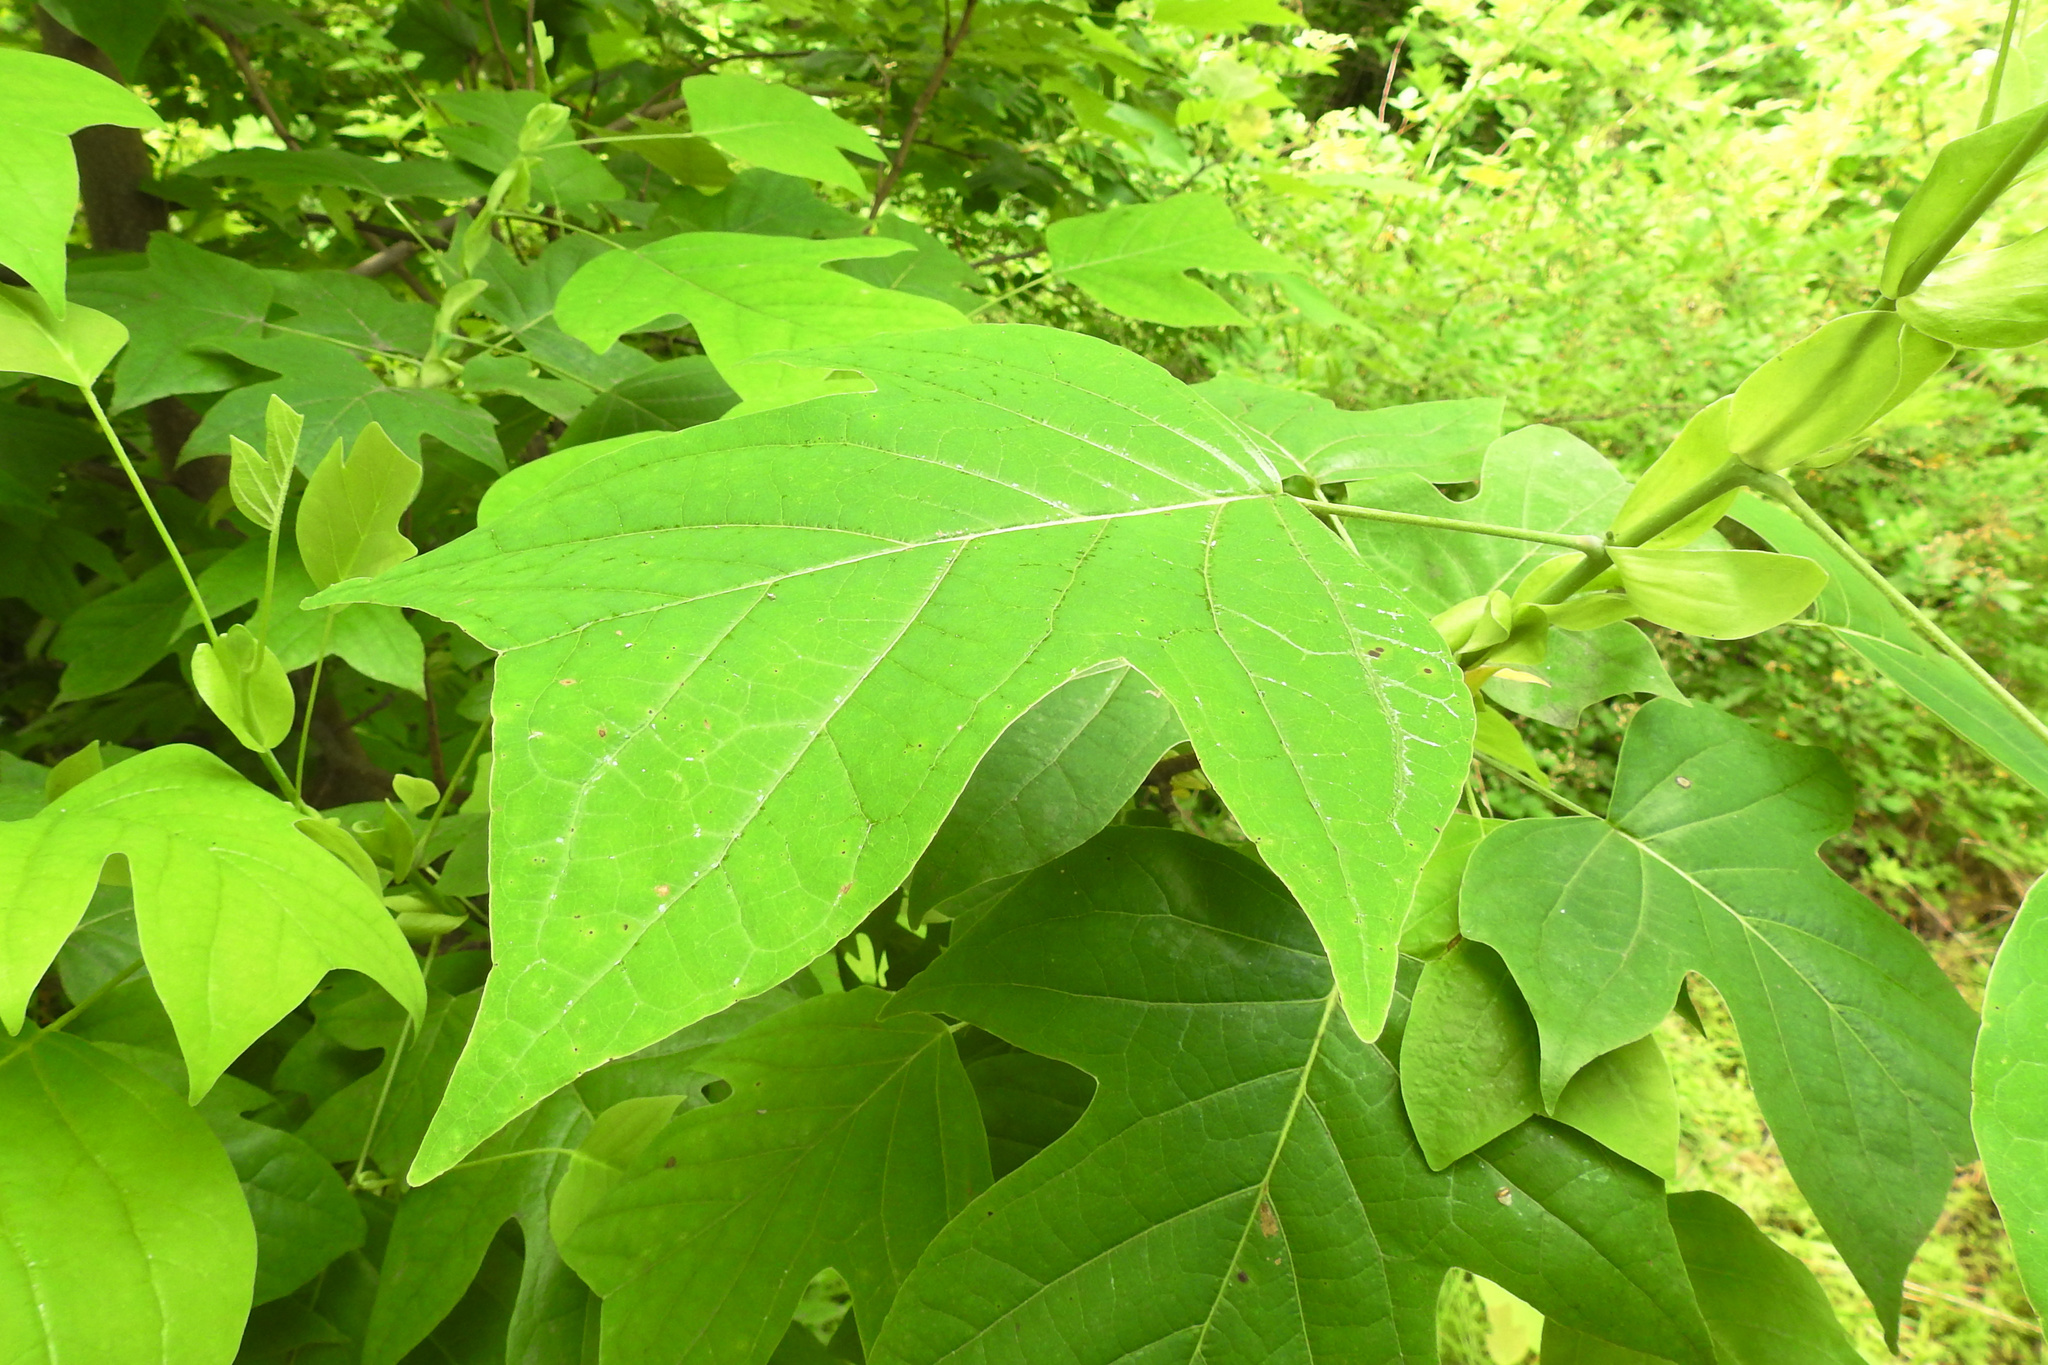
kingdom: Plantae
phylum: Tracheophyta
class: Magnoliopsida
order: Magnoliales
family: Magnoliaceae
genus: Liriodendron
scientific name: Liriodendron tulipifera
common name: Tulip tree
